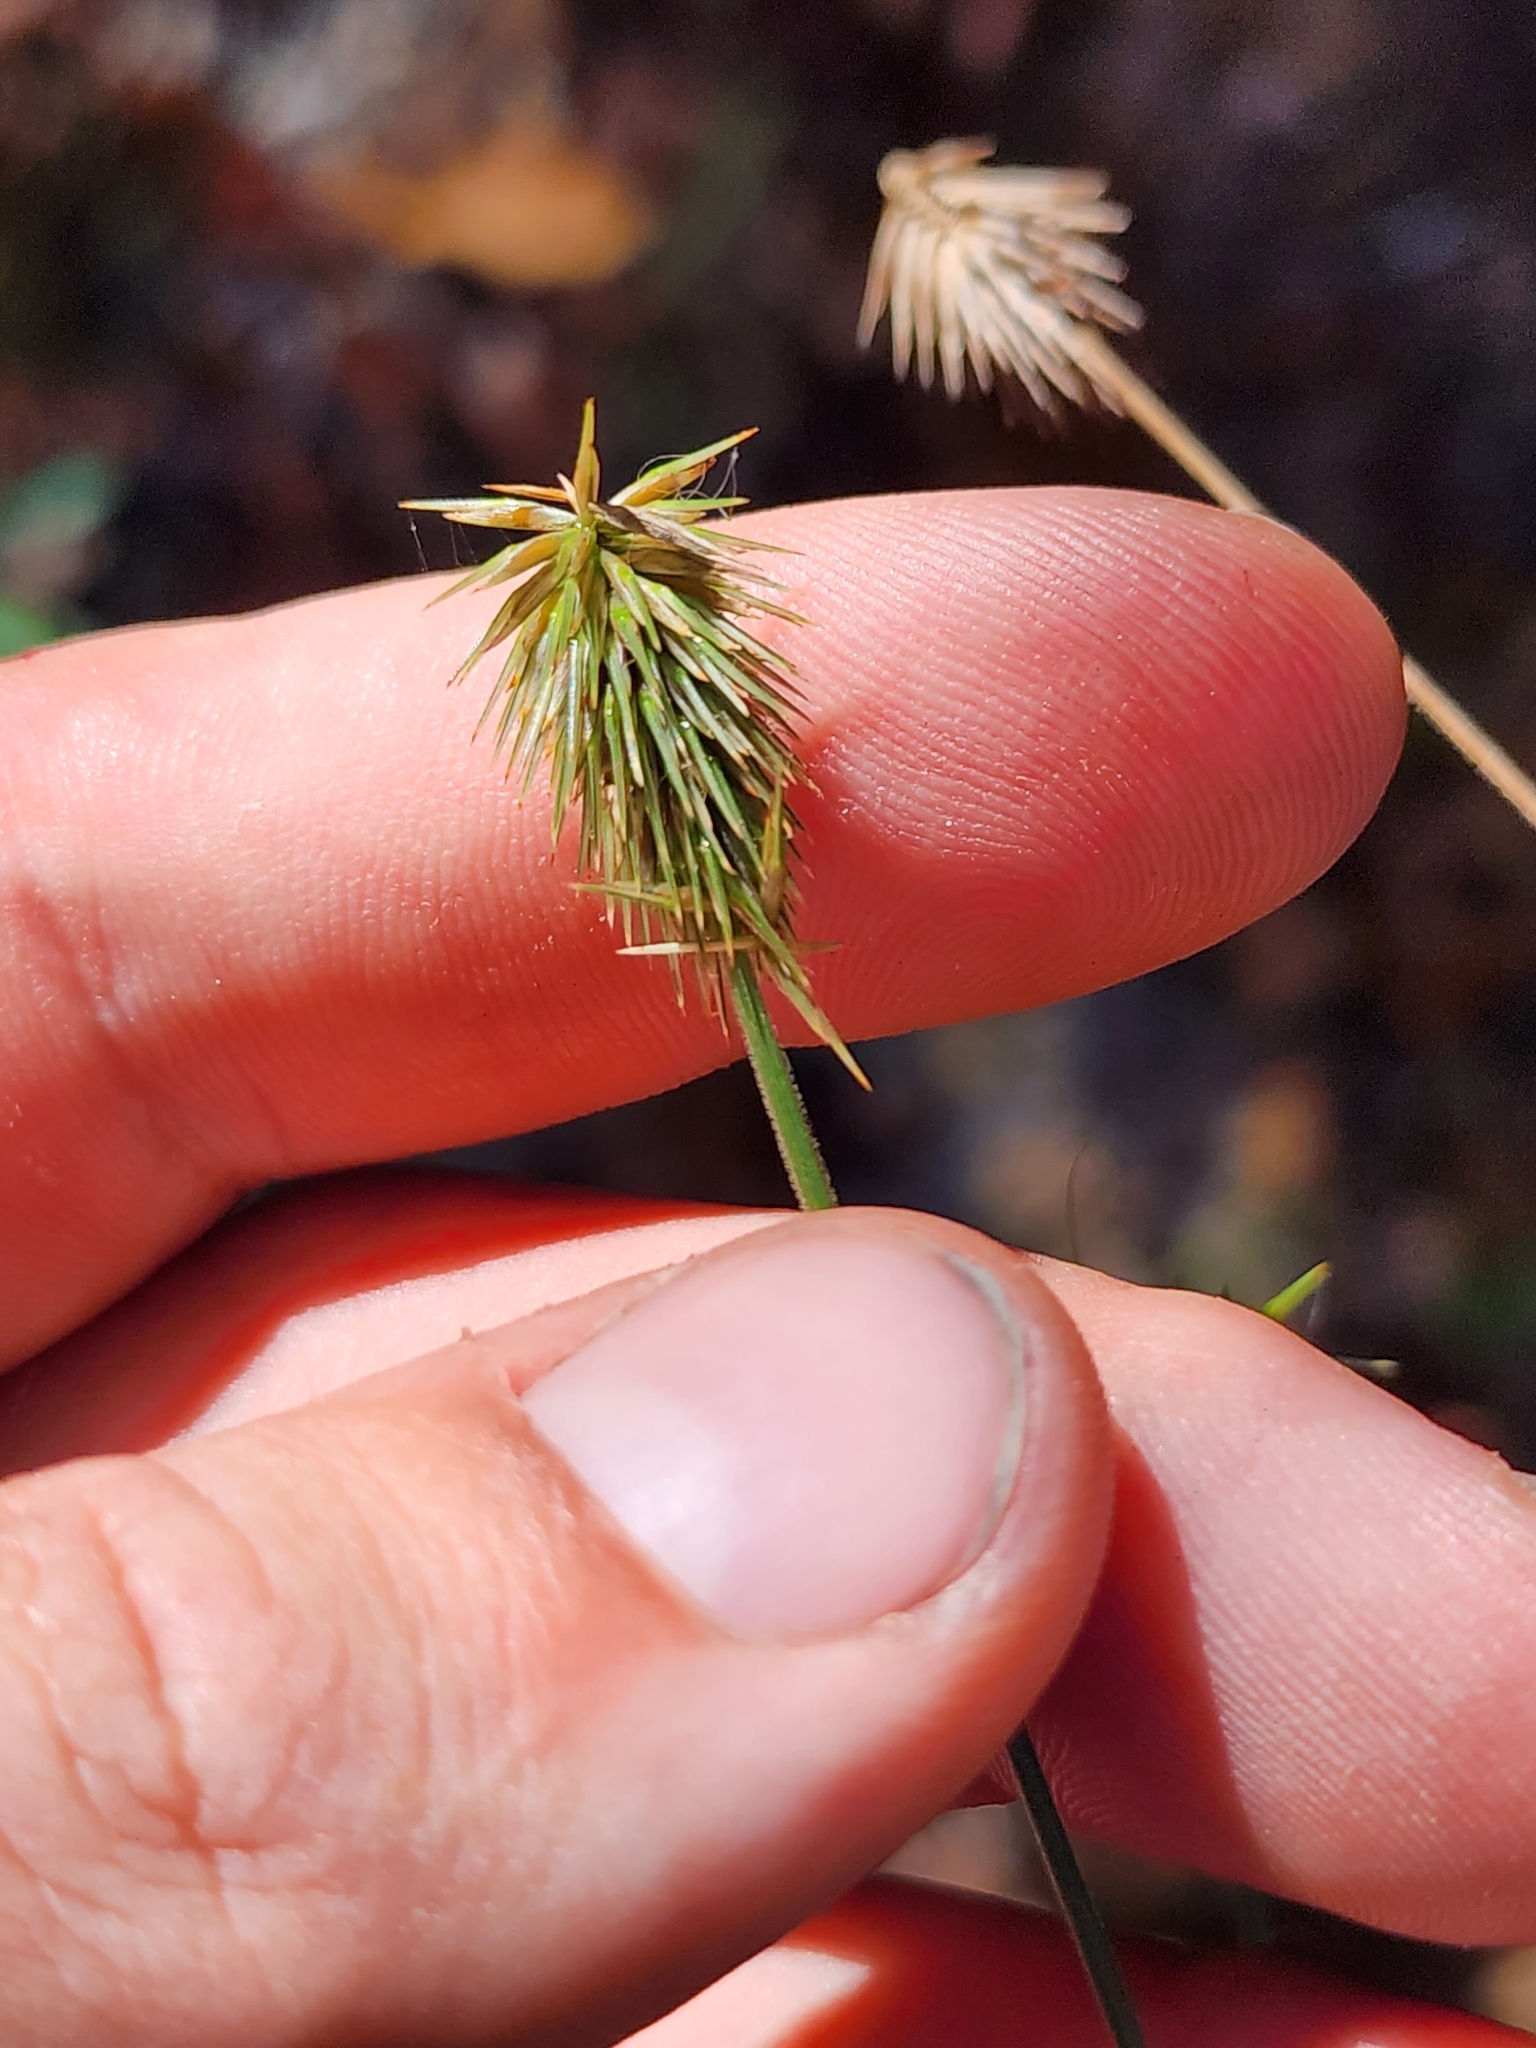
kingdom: Plantae
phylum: Tracheophyta
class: Liliopsida
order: Poales
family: Cyperaceae
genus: Cyperus
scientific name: Cyperus plukenetii
